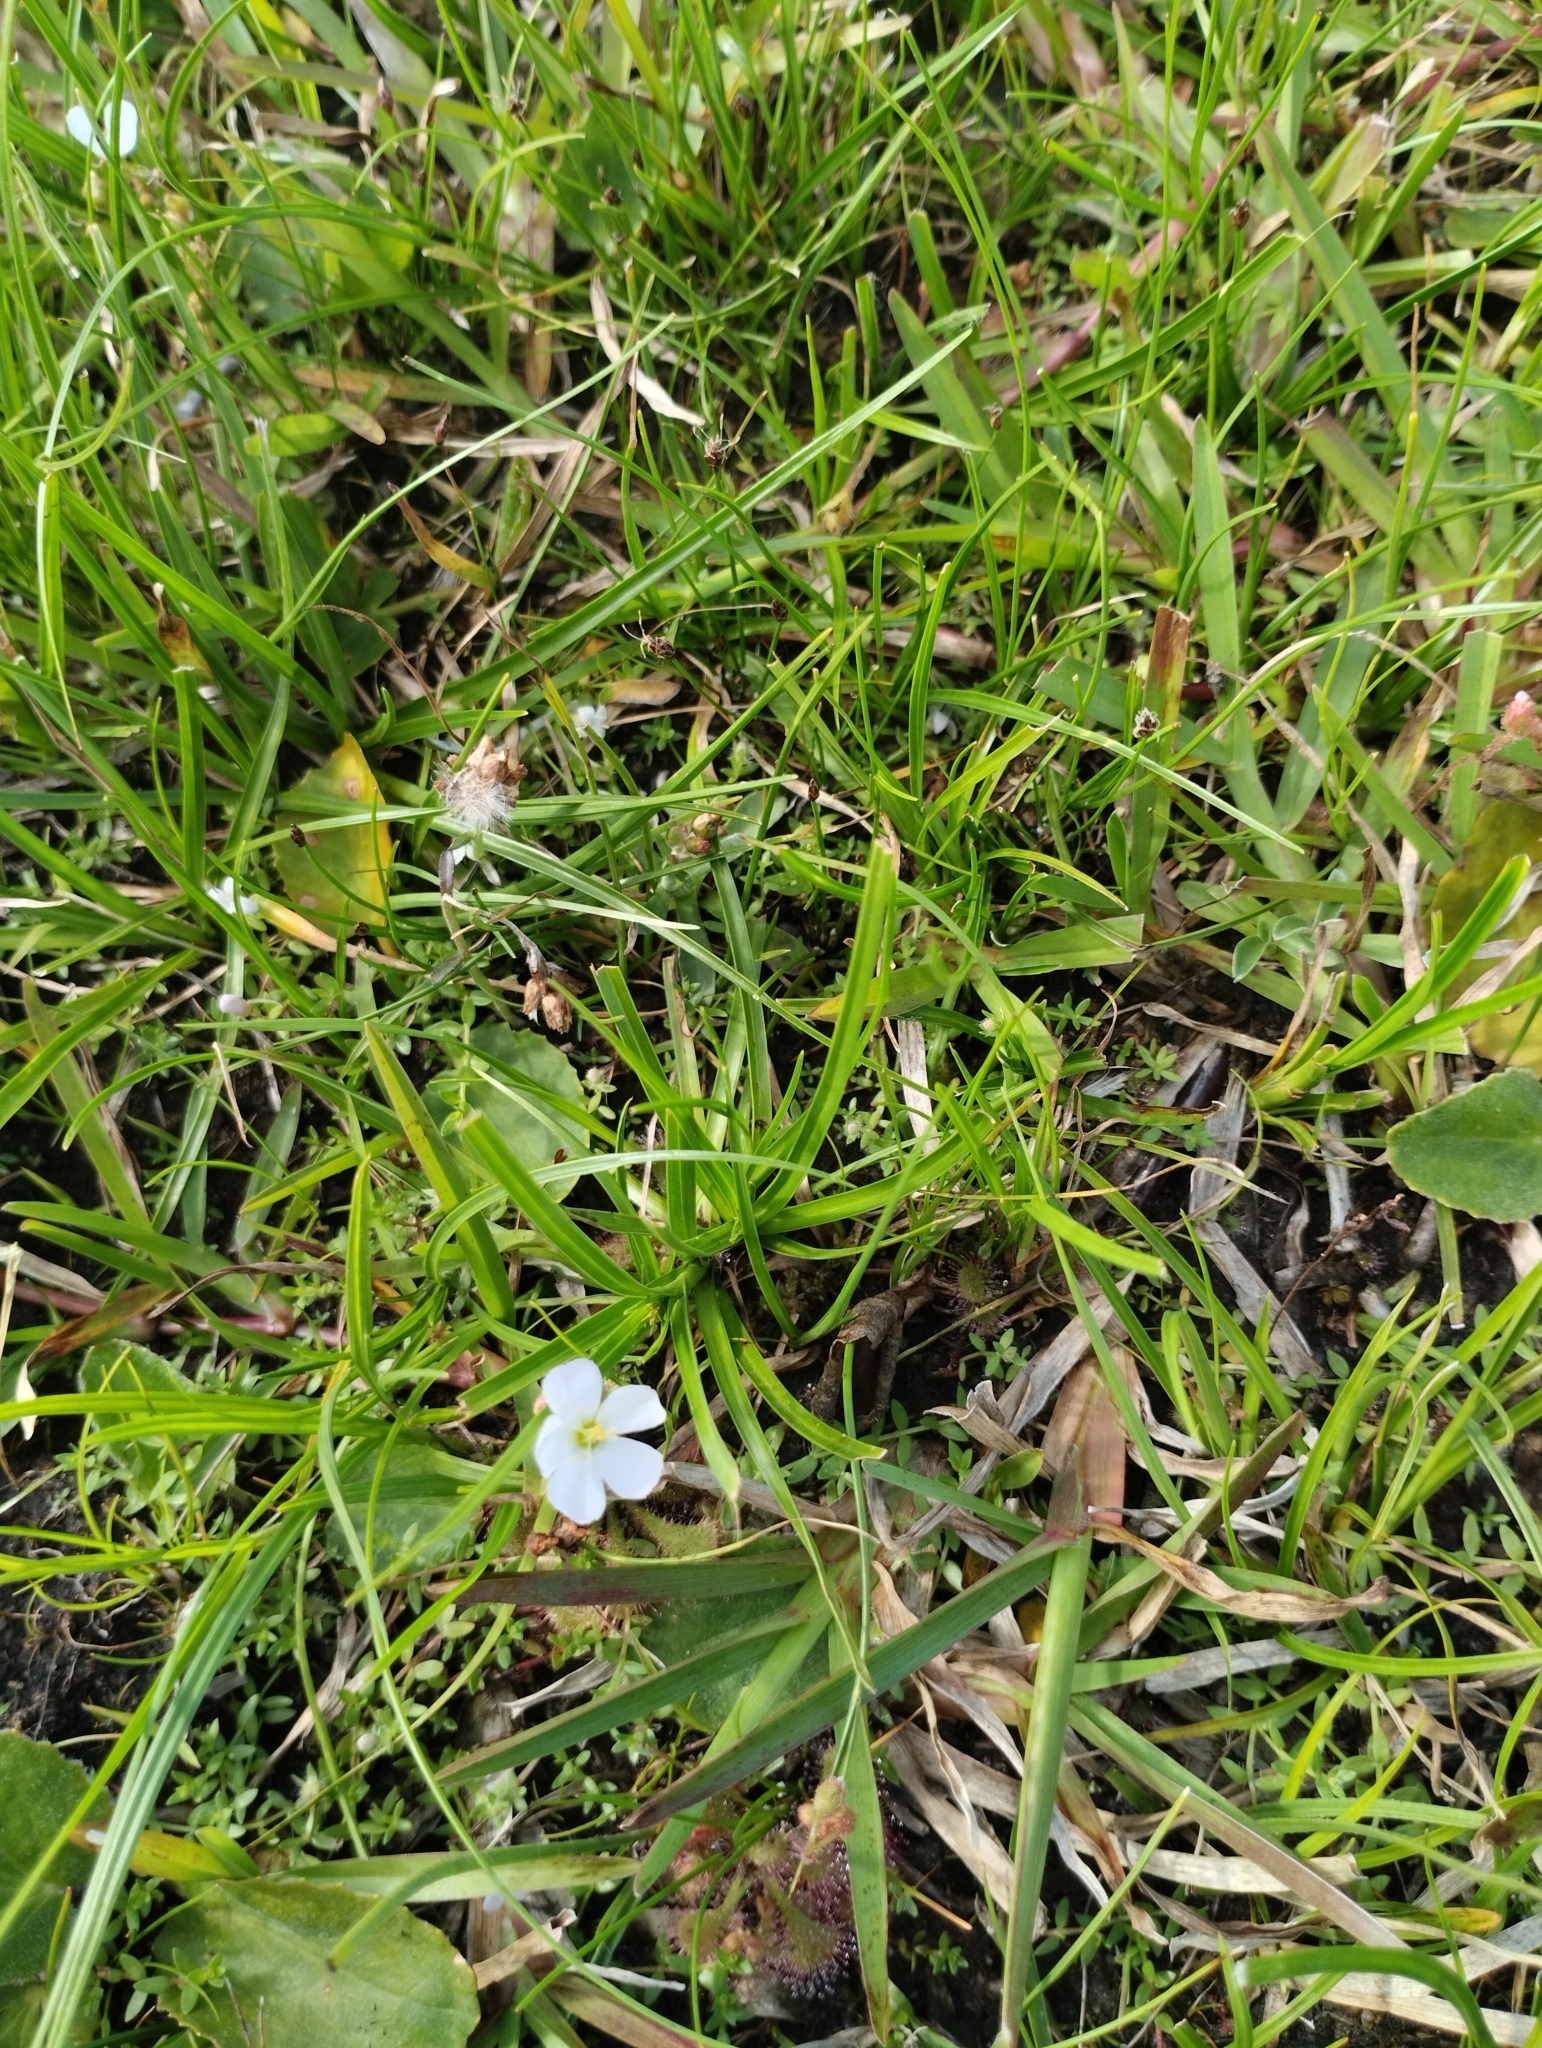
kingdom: Plantae
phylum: Tracheophyta
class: Magnoliopsida
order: Caryophyllales
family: Droseraceae
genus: Drosera
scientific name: Drosera brevifolia
